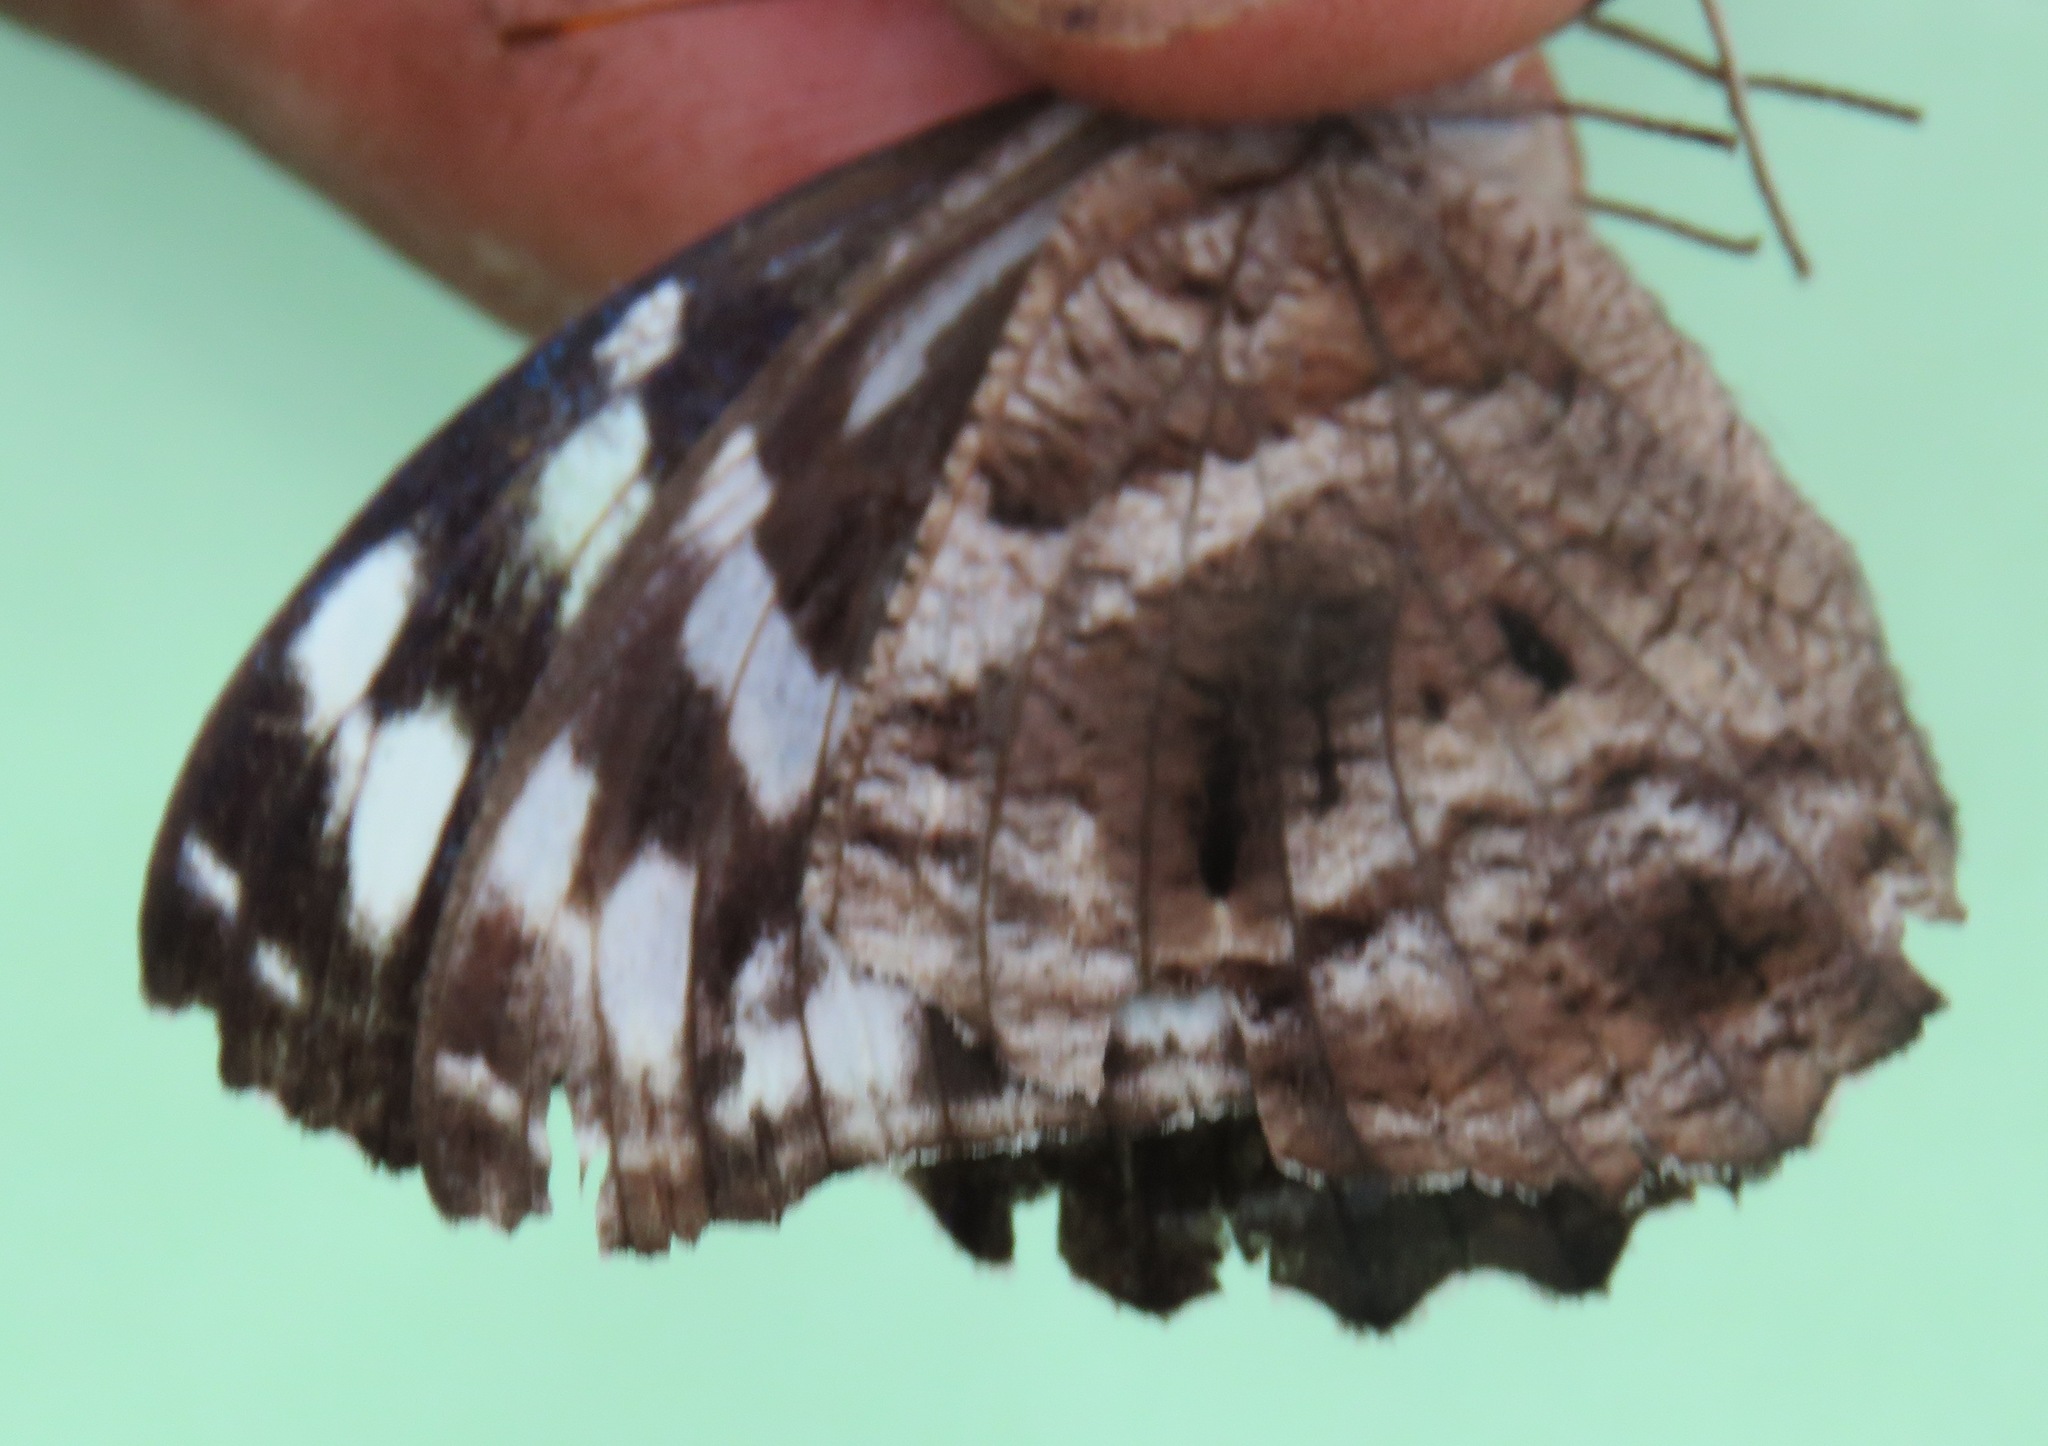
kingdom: Animalia
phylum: Arthropoda
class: Insecta
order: Lepidoptera
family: Nymphalidae
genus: Myscelia
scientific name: Myscelia ethusa
